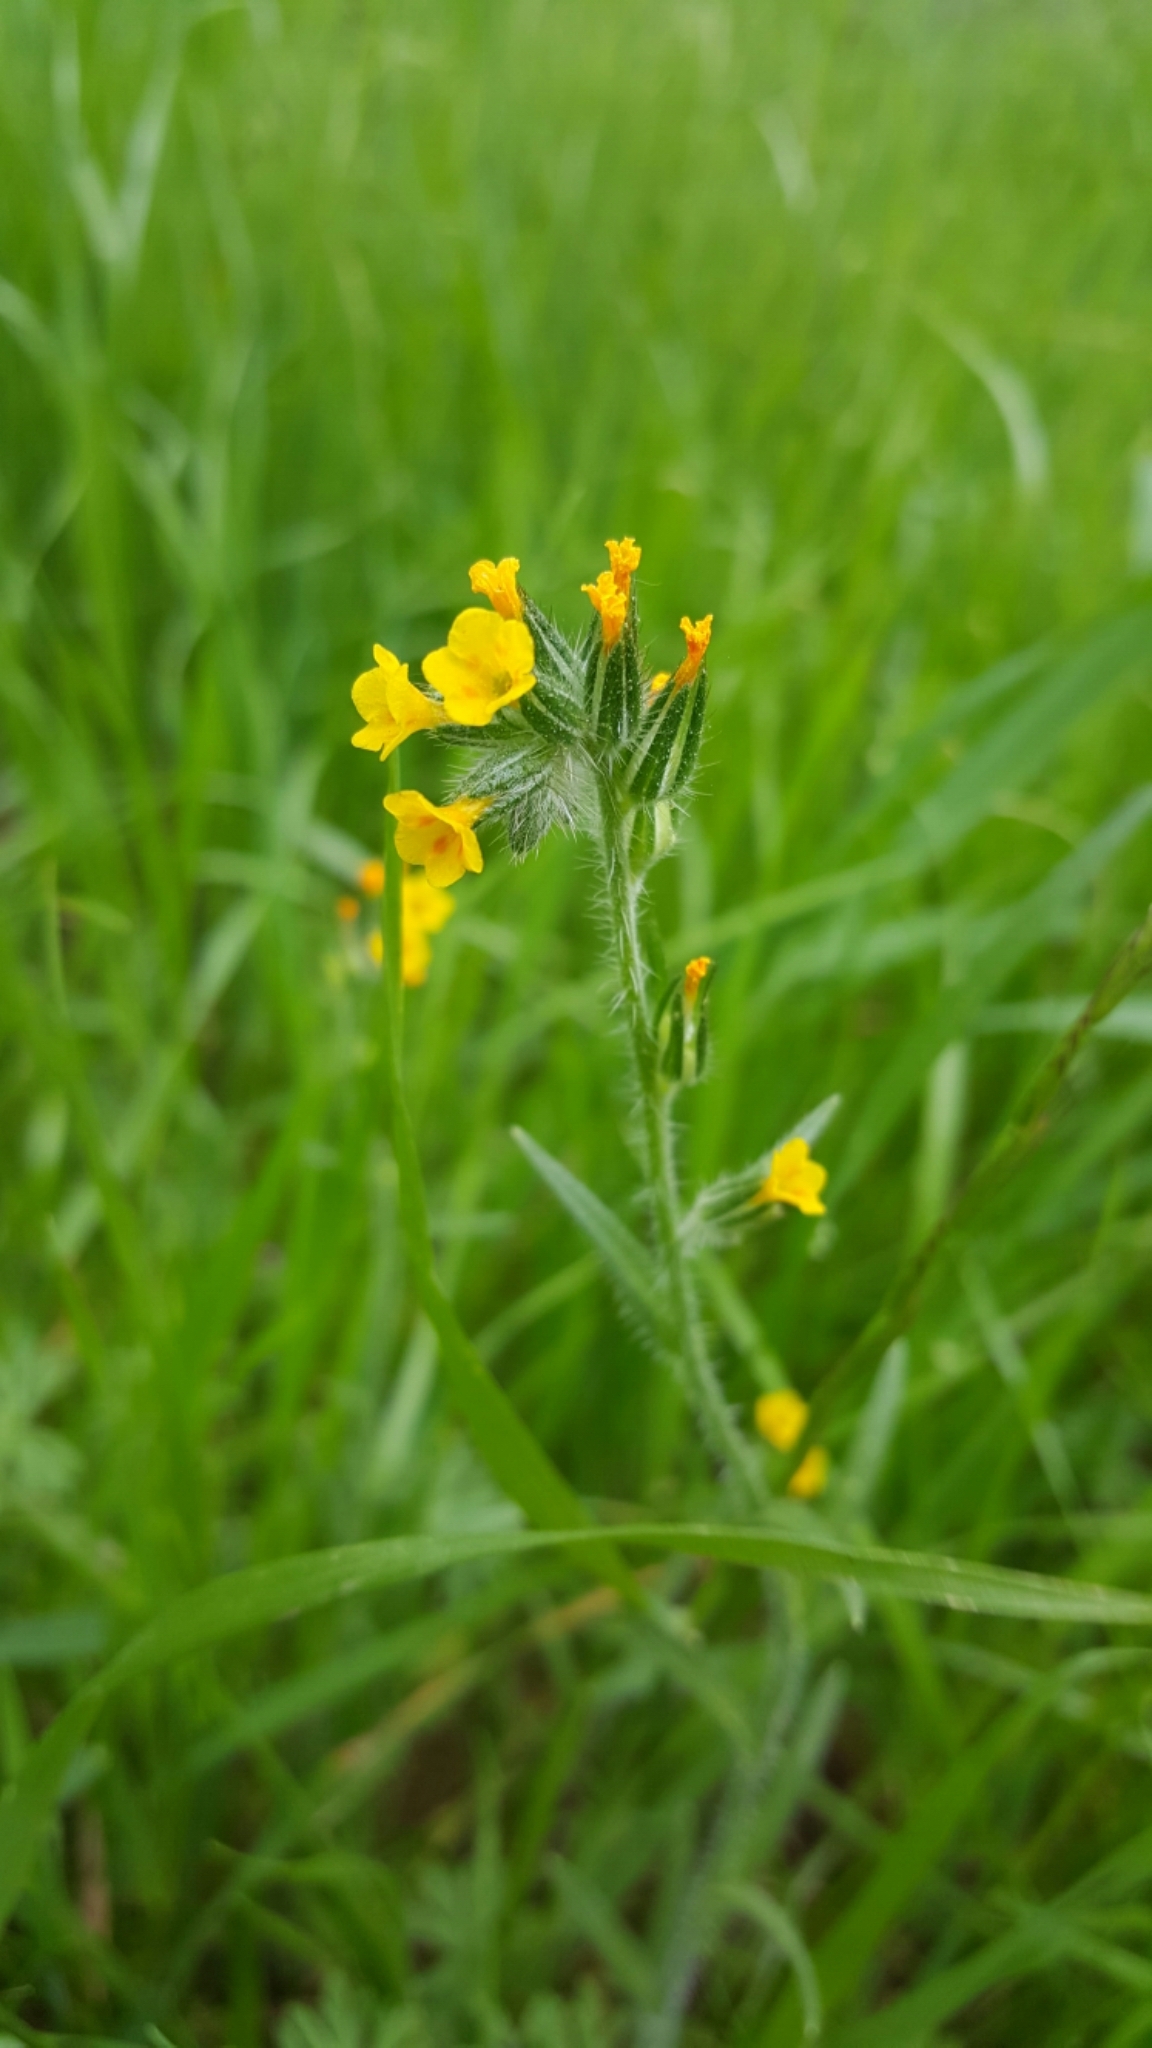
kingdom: Plantae
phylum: Tracheophyta
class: Magnoliopsida
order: Boraginales
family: Boraginaceae
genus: Amsinckia
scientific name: Amsinckia menziesii
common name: Menzies' fiddleneck
